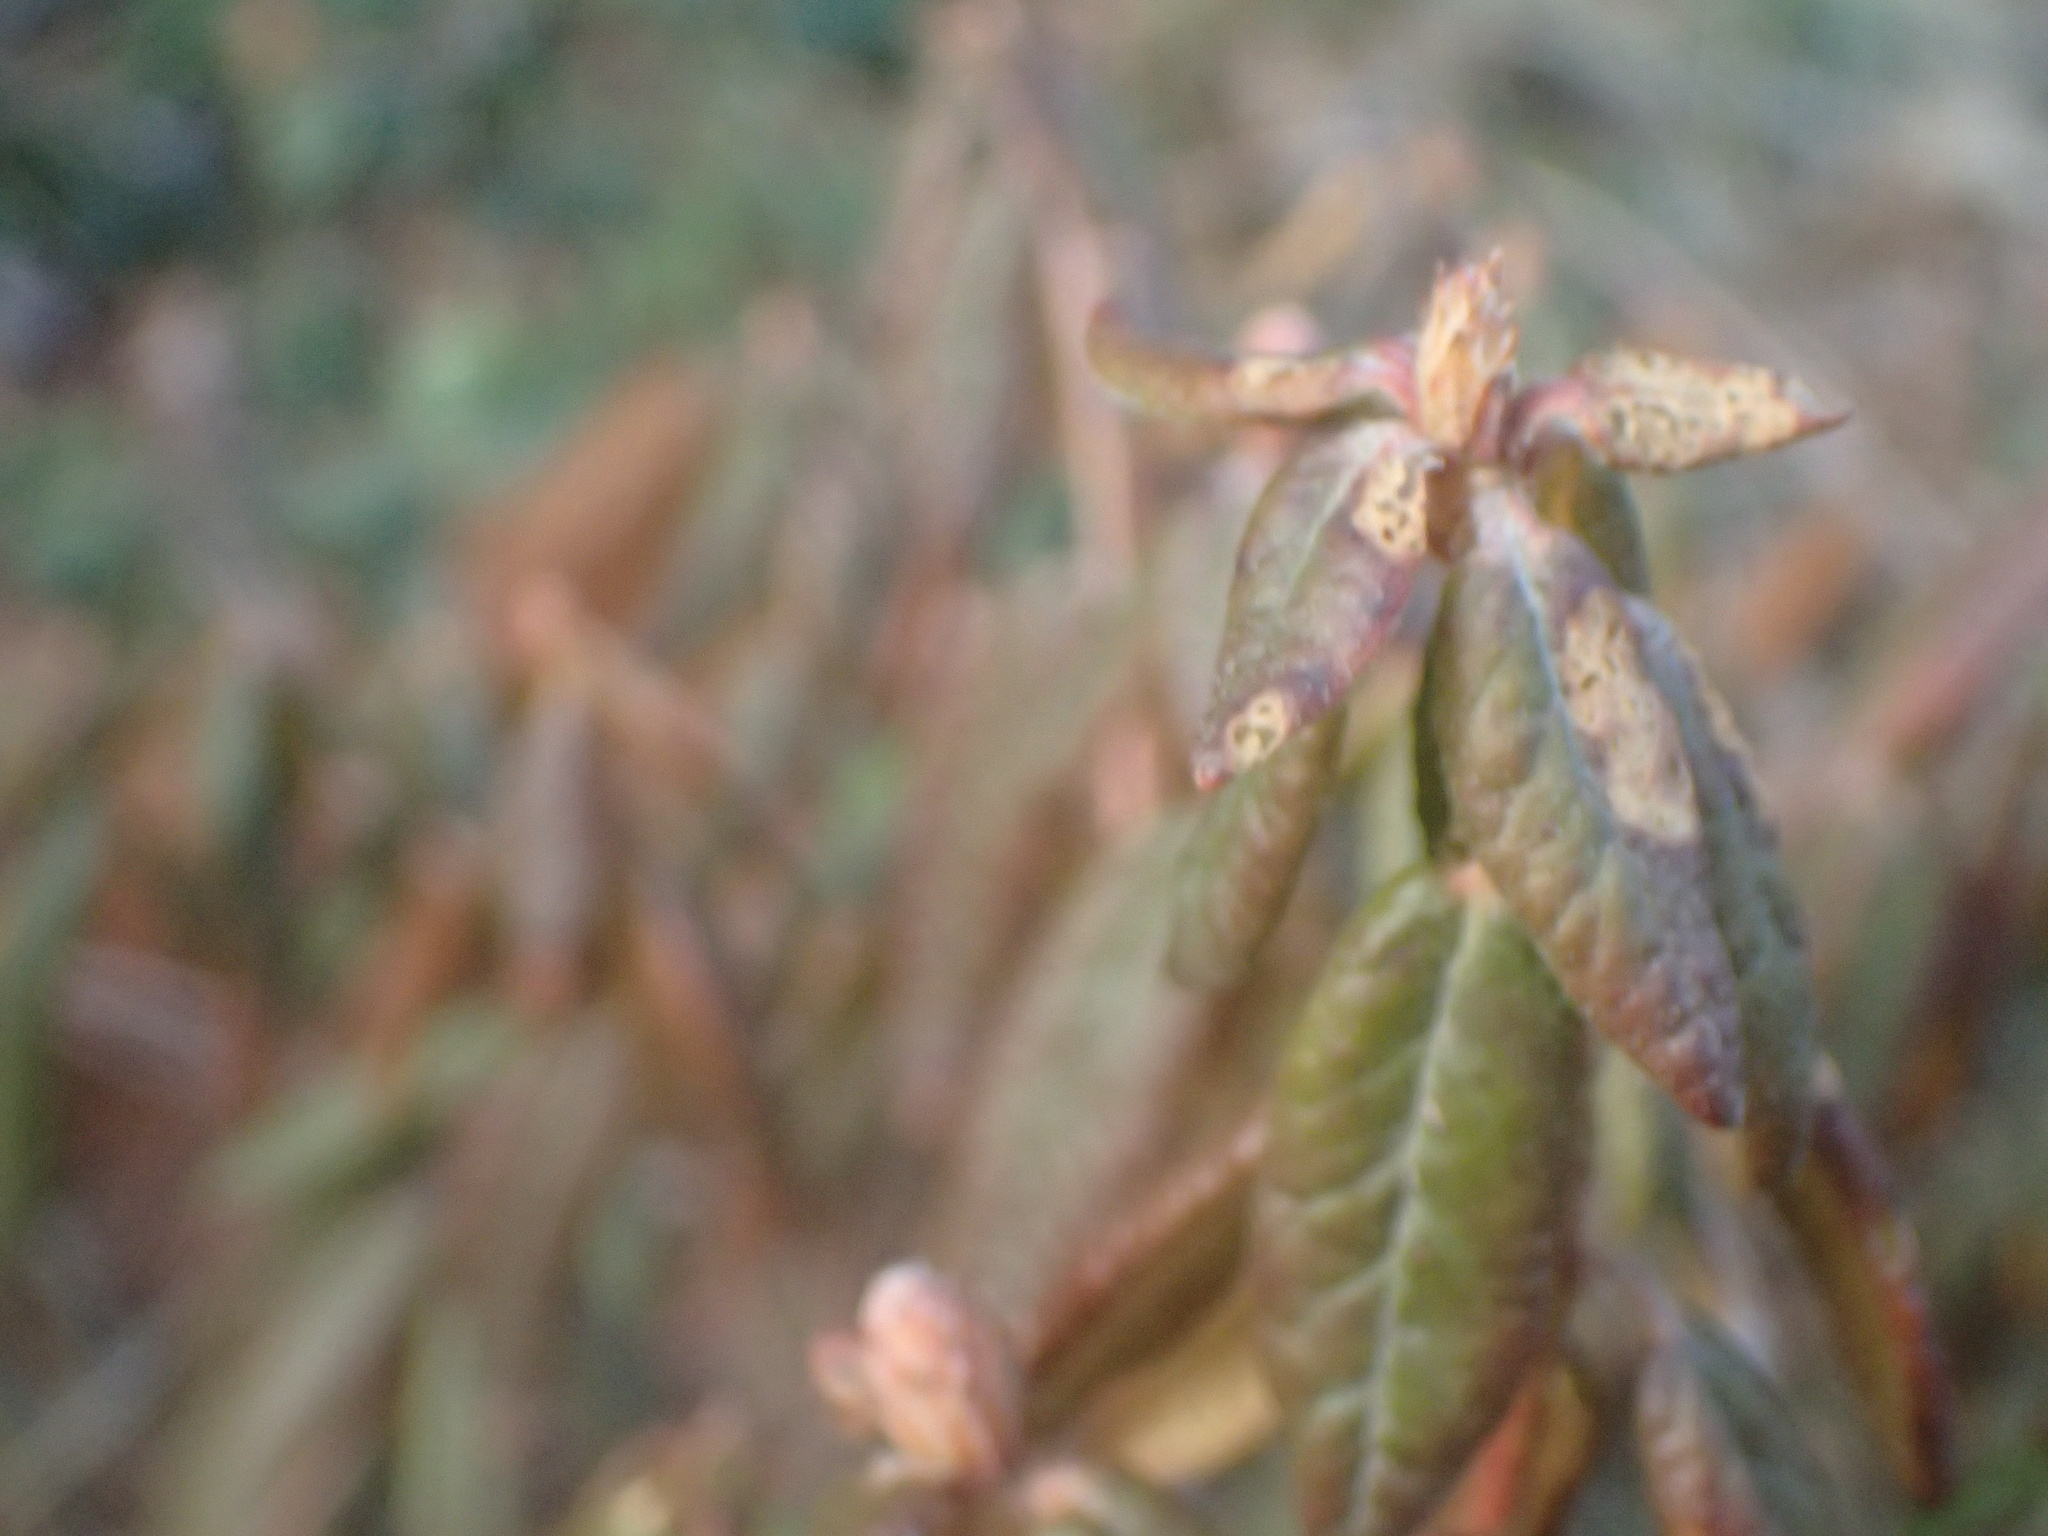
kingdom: Plantae
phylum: Tracheophyta
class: Magnoliopsida
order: Ericales
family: Ericaceae
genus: Rhododendron
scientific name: Rhododendron groenlandicum
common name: Bog labrador tea
